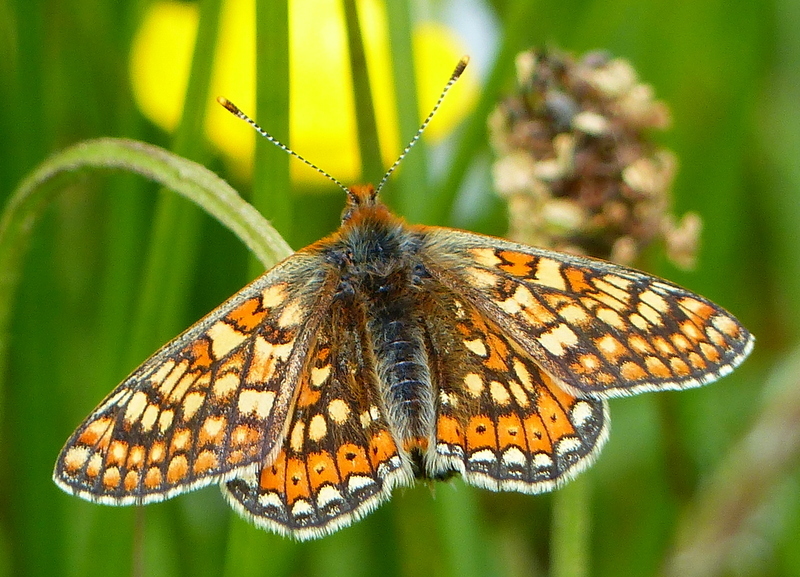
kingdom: Animalia
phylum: Arthropoda
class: Insecta
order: Lepidoptera
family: Nymphalidae
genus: Euphydryas
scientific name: Euphydryas aurinia
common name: Marsh fritillary
